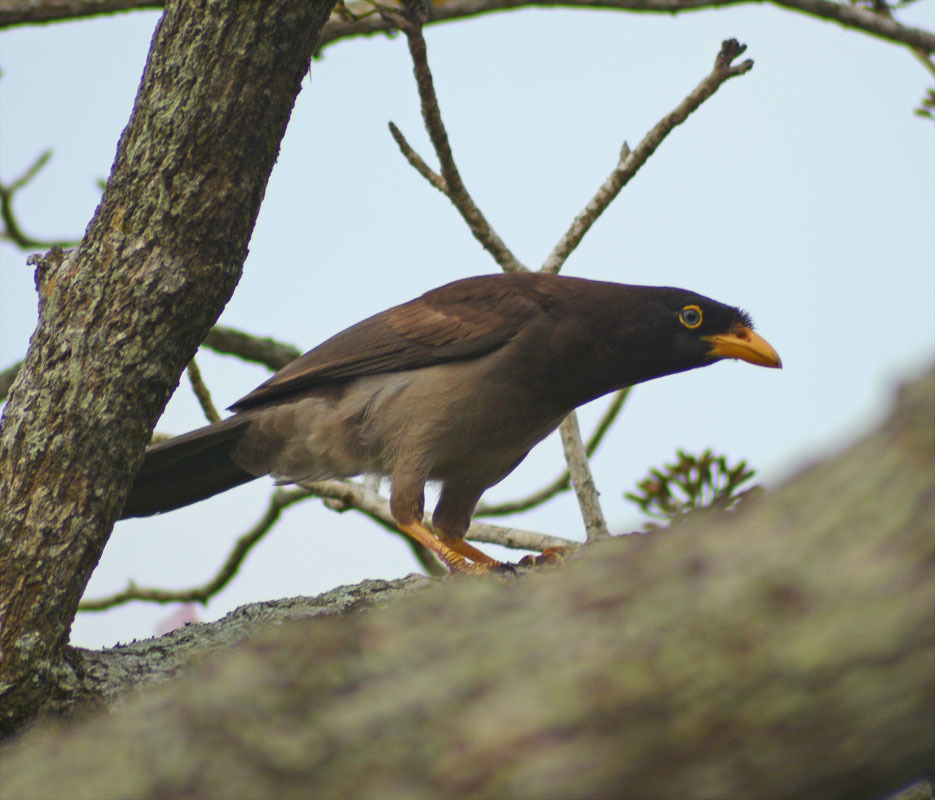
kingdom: Animalia
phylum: Chordata
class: Aves
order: Passeriformes
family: Corvidae
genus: Psilorhinus
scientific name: Psilorhinus morio
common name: Brown jay
